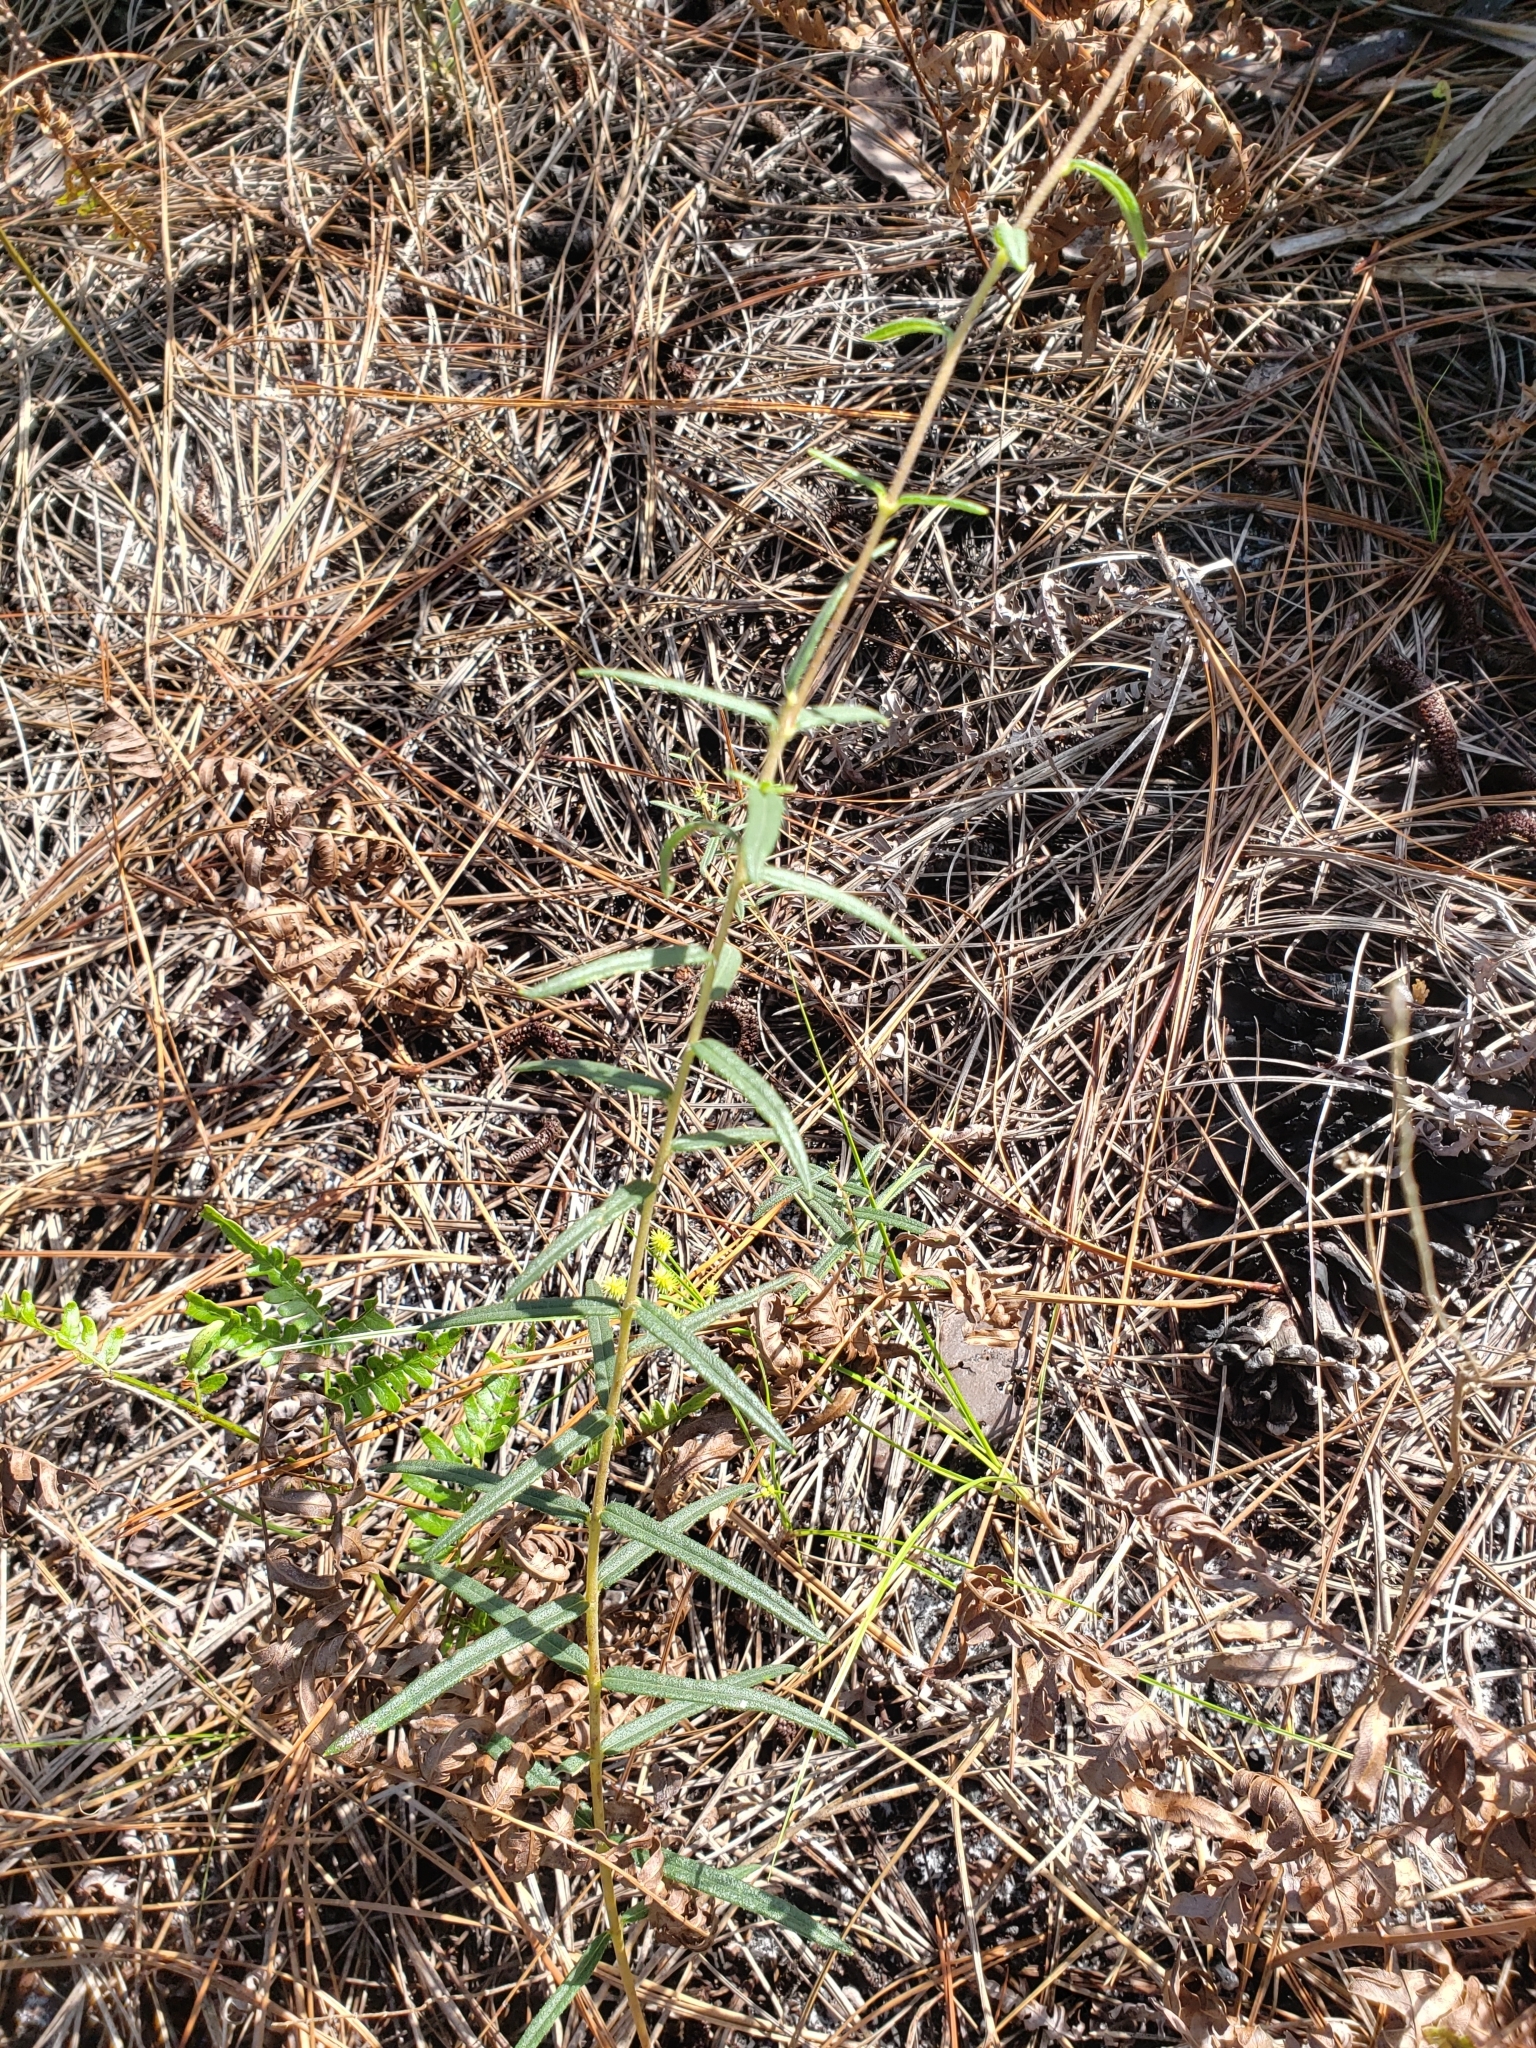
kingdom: Plantae
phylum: Tracheophyta
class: Magnoliopsida
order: Asterales
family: Asteraceae
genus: Phoebanthus
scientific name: Phoebanthus grandiflora
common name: Florida false sunflower
